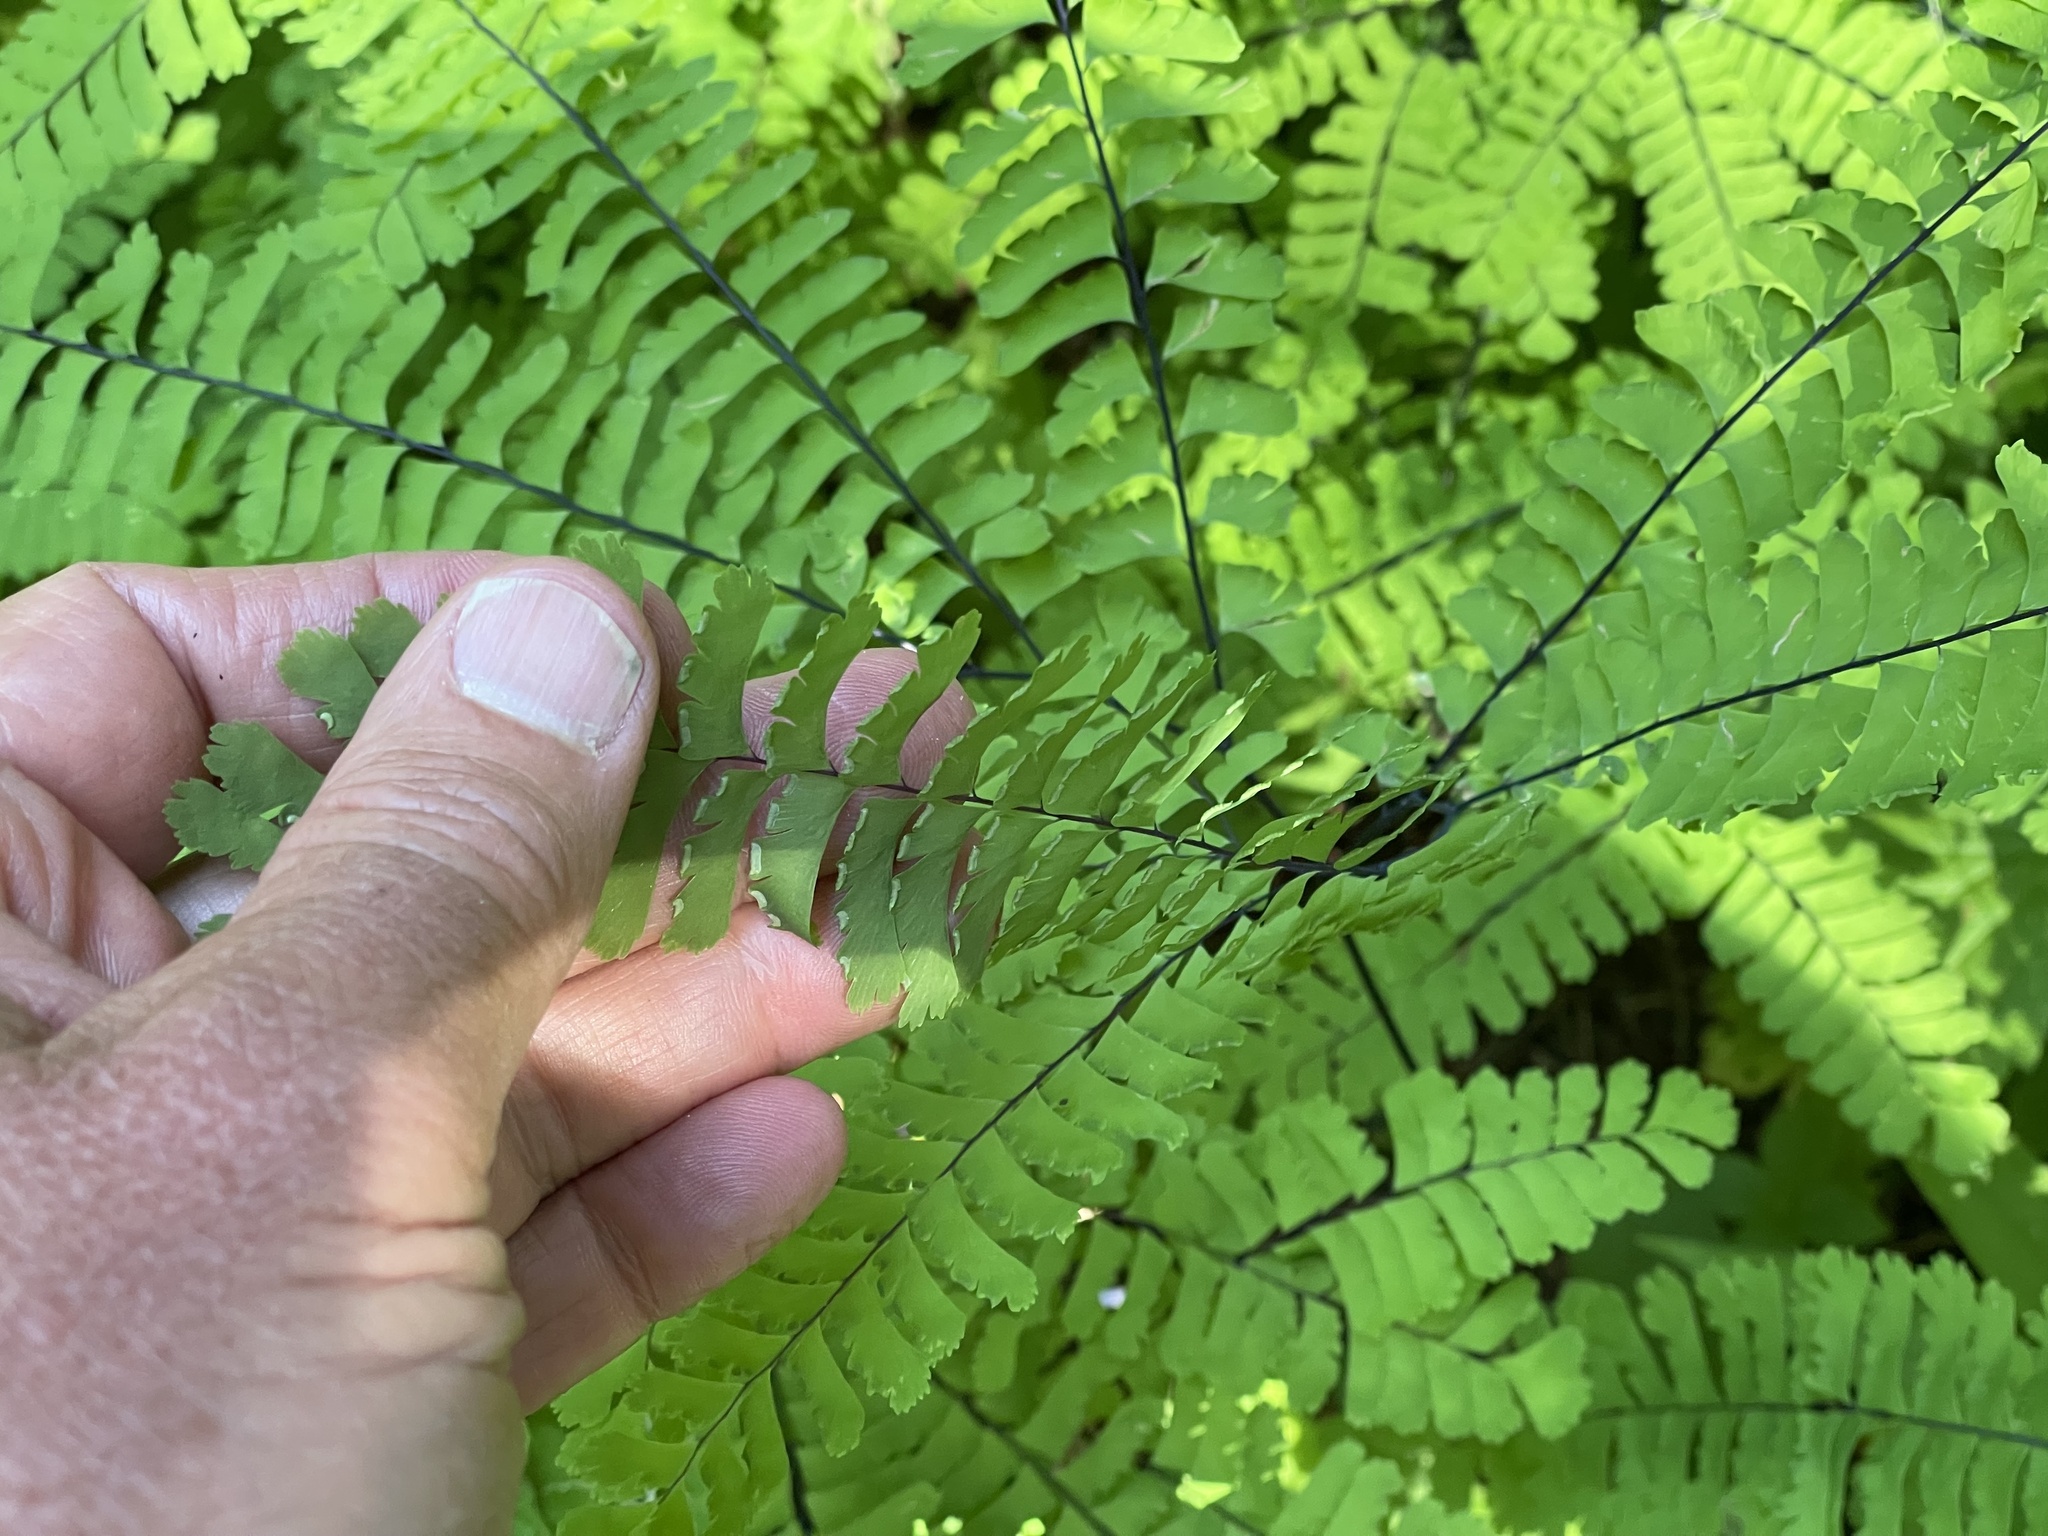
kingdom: Plantae
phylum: Tracheophyta
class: Polypodiopsida
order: Polypodiales
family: Pteridaceae
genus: Adiantum
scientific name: Adiantum aleuticum
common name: Aleutian maidenhair fern
